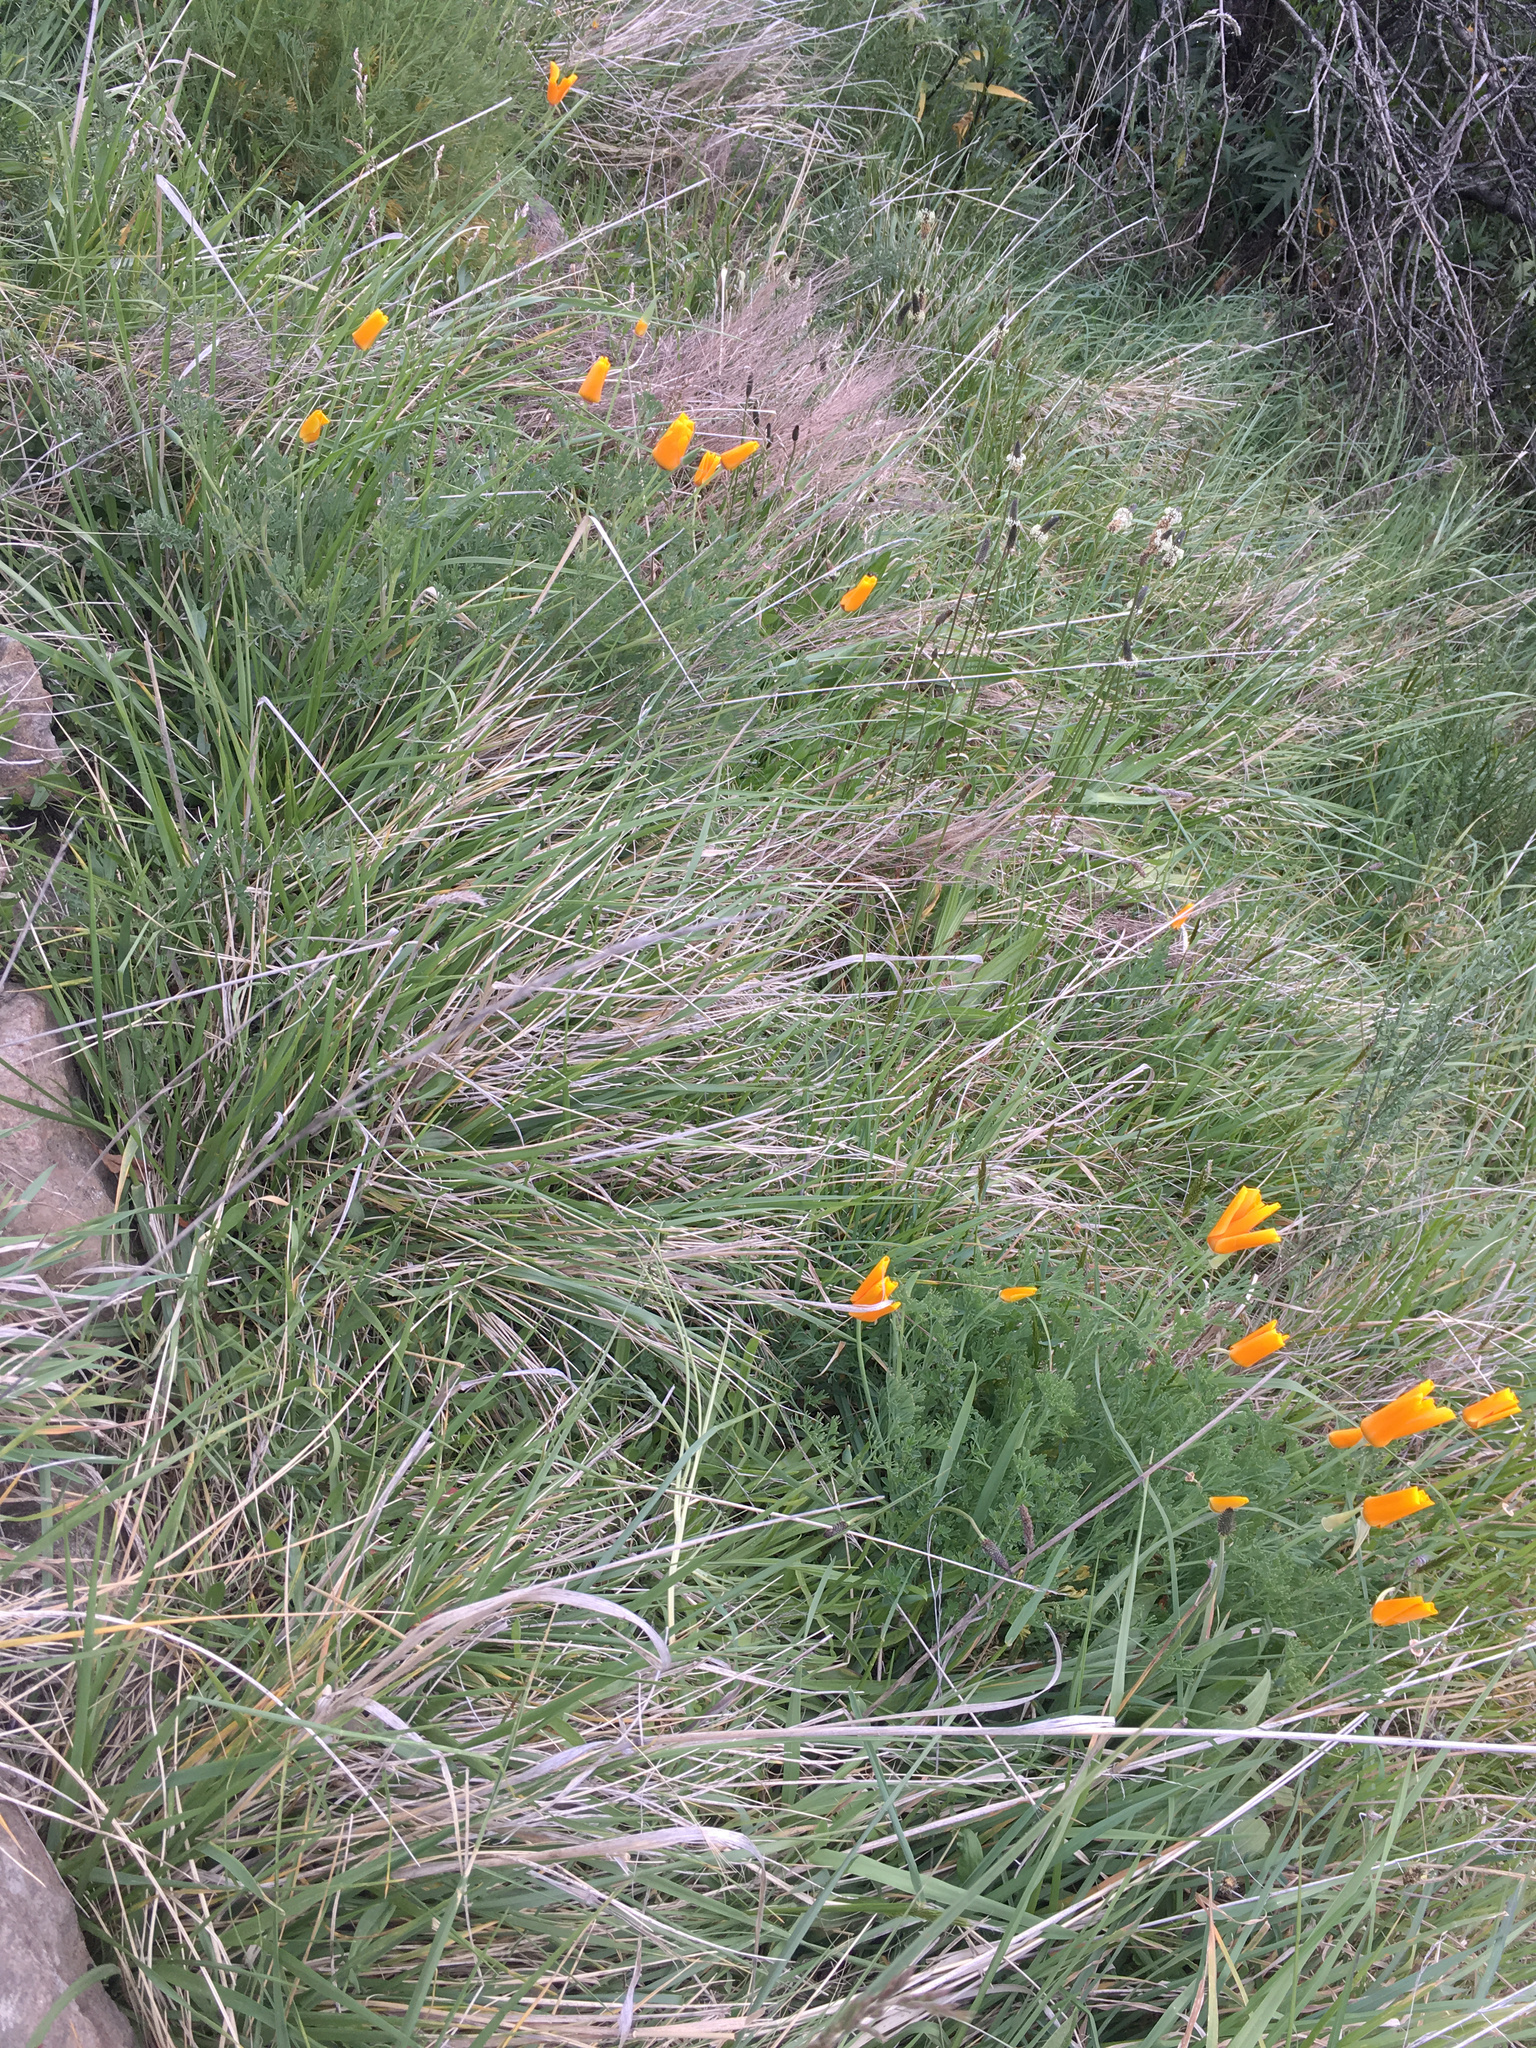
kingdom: Plantae
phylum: Tracheophyta
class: Magnoliopsida
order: Ranunculales
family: Papaveraceae
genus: Eschscholzia
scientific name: Eschscholzia californica
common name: California poppy
